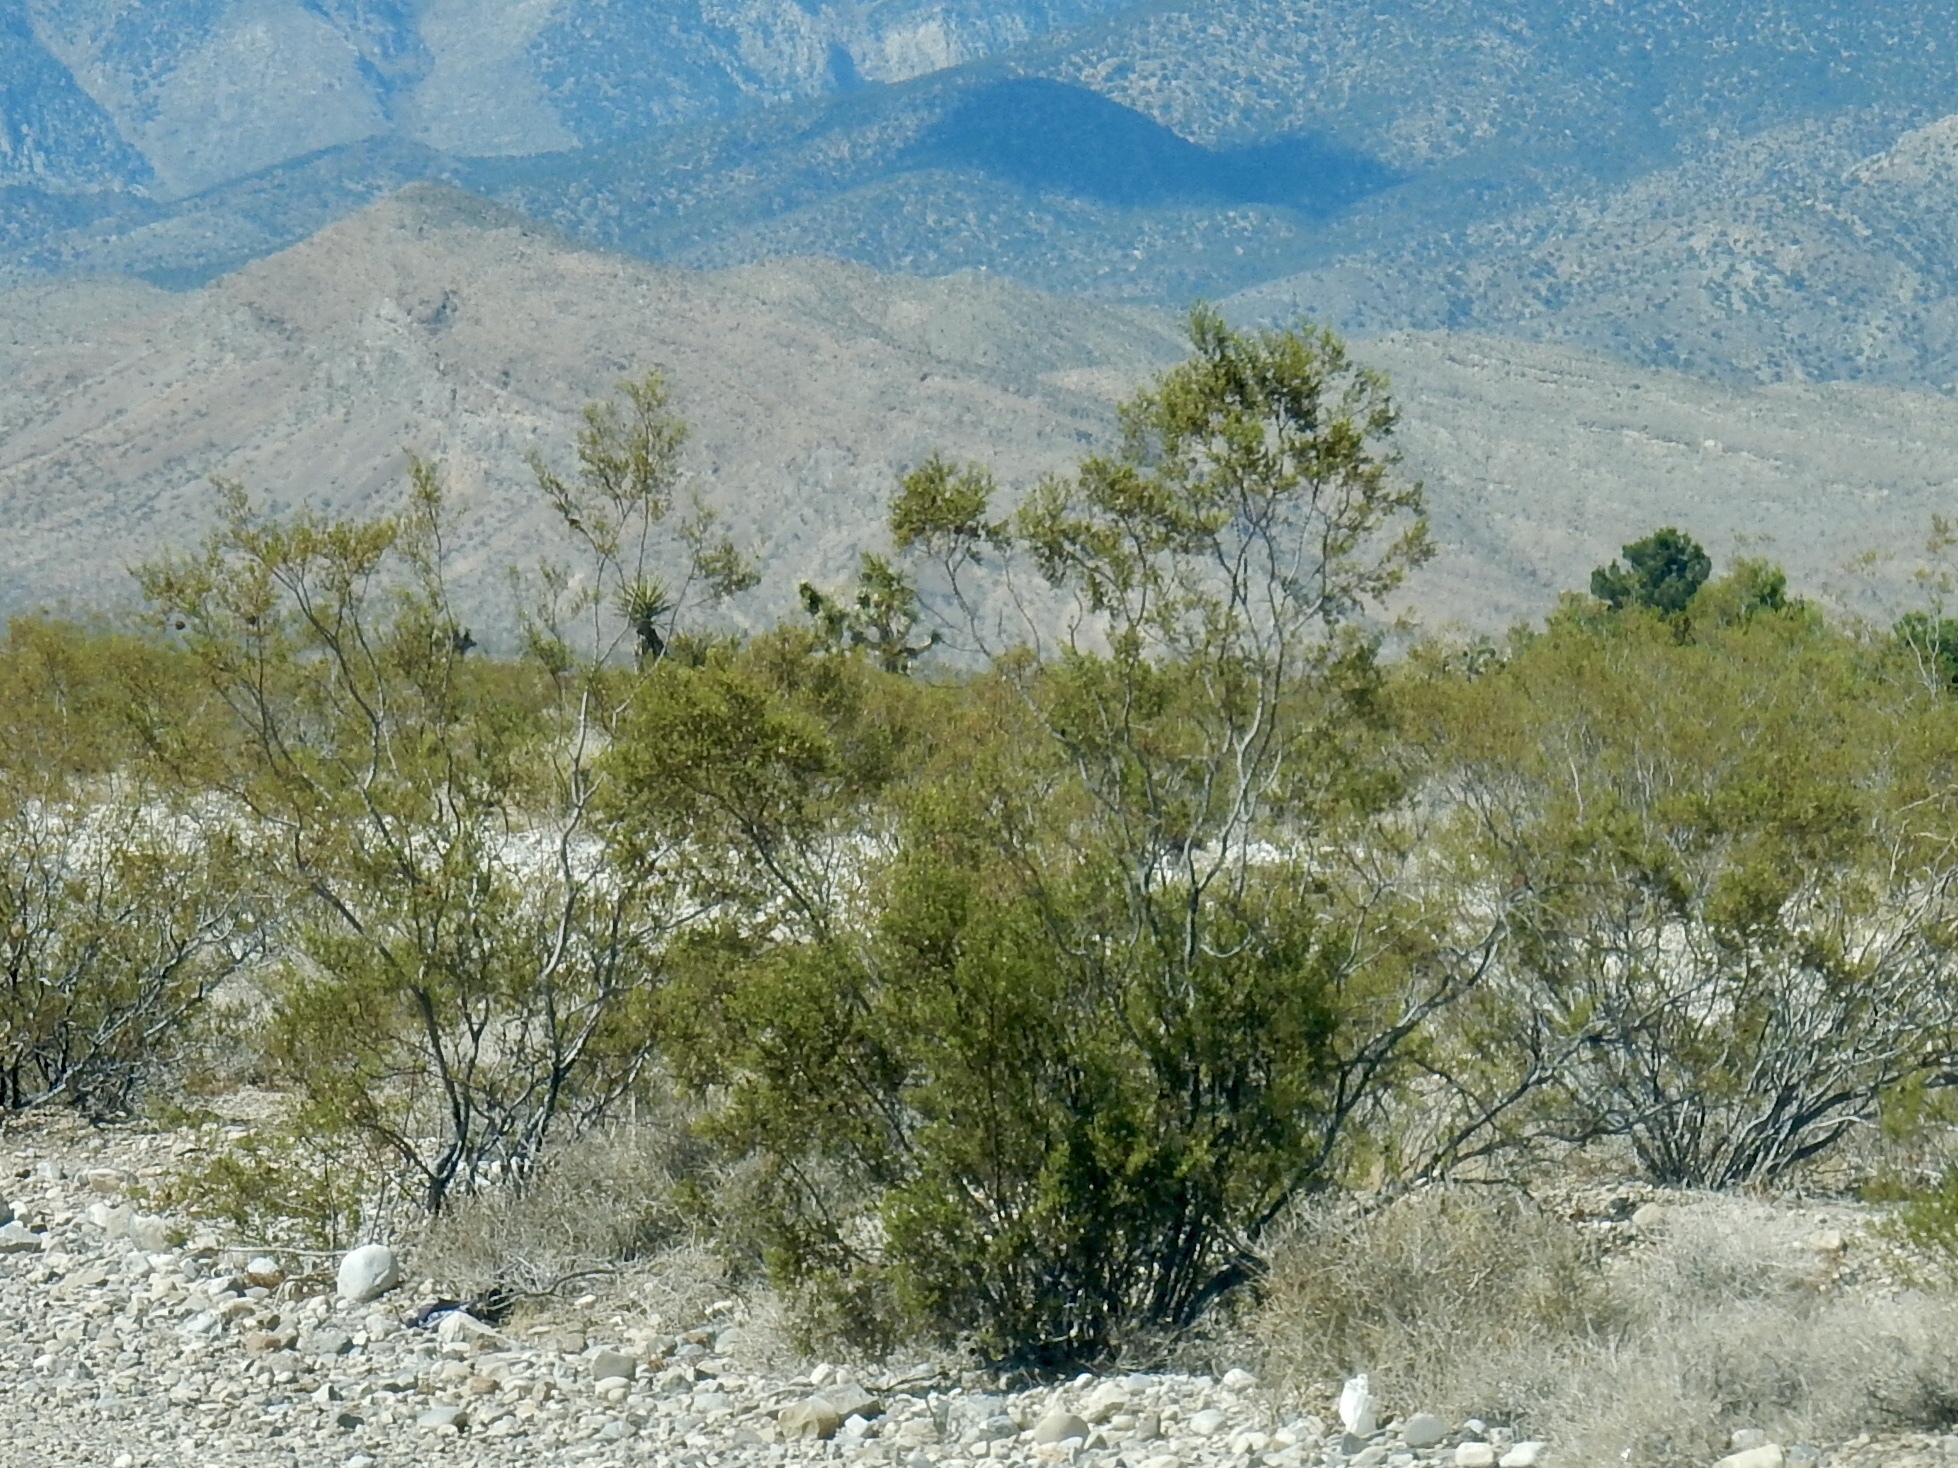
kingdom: Plantae
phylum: Tracheophyta
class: Magnoliopsida
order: Zygophyllales
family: Zygophyllaceae
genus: Larrea
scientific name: Larrea tridentata
